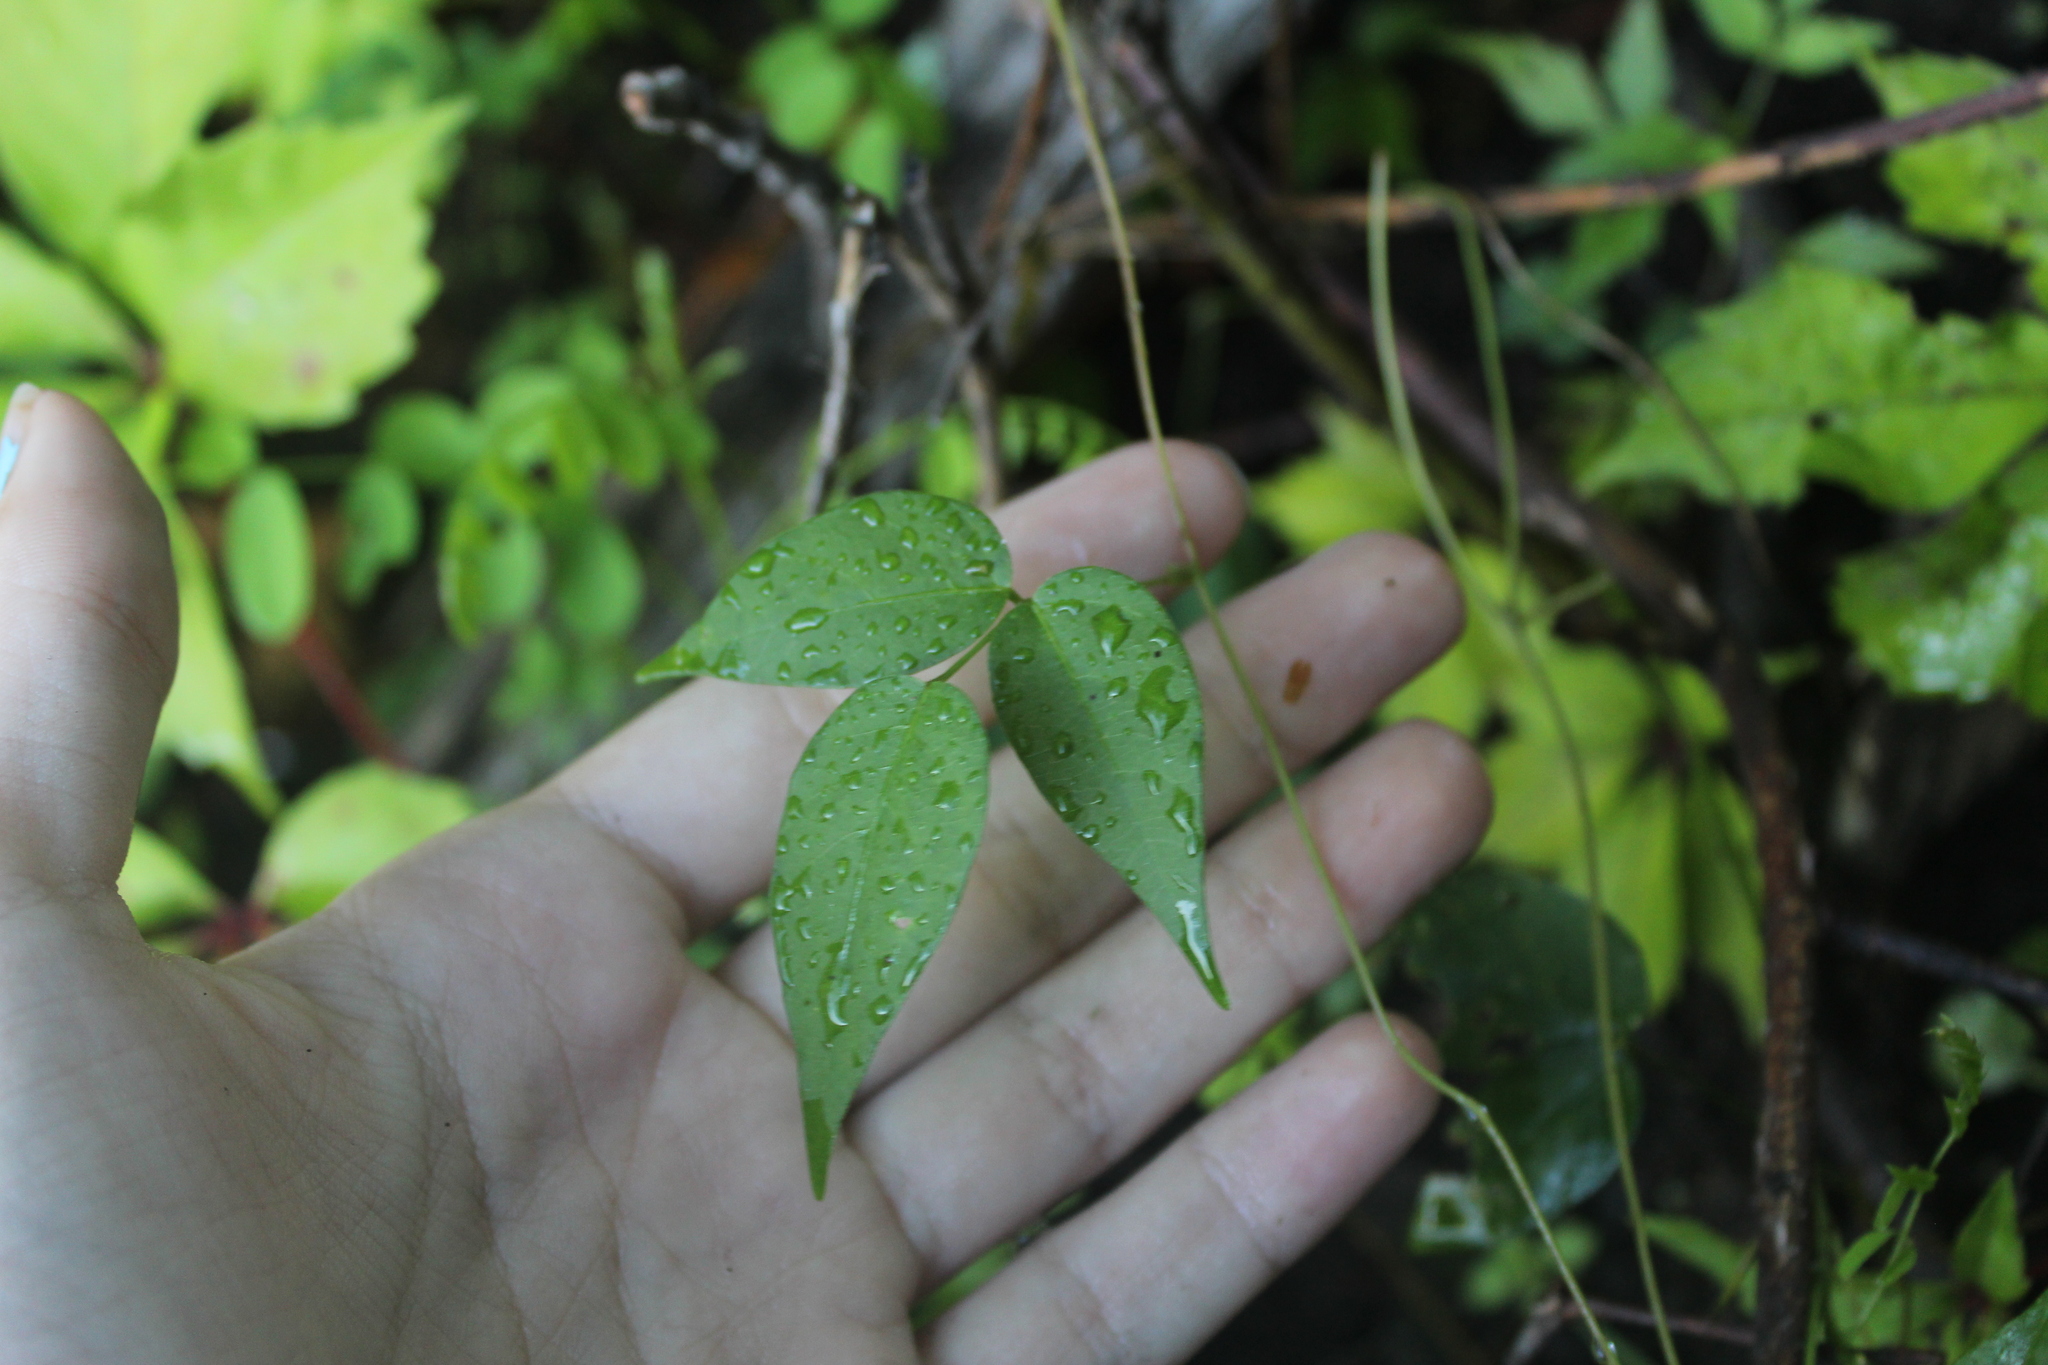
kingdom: Plantae
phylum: Tracheophyta
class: Magnoliopsida
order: Fabales
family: Fabaceae
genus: Apios
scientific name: Apios americana
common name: American potato-bean
